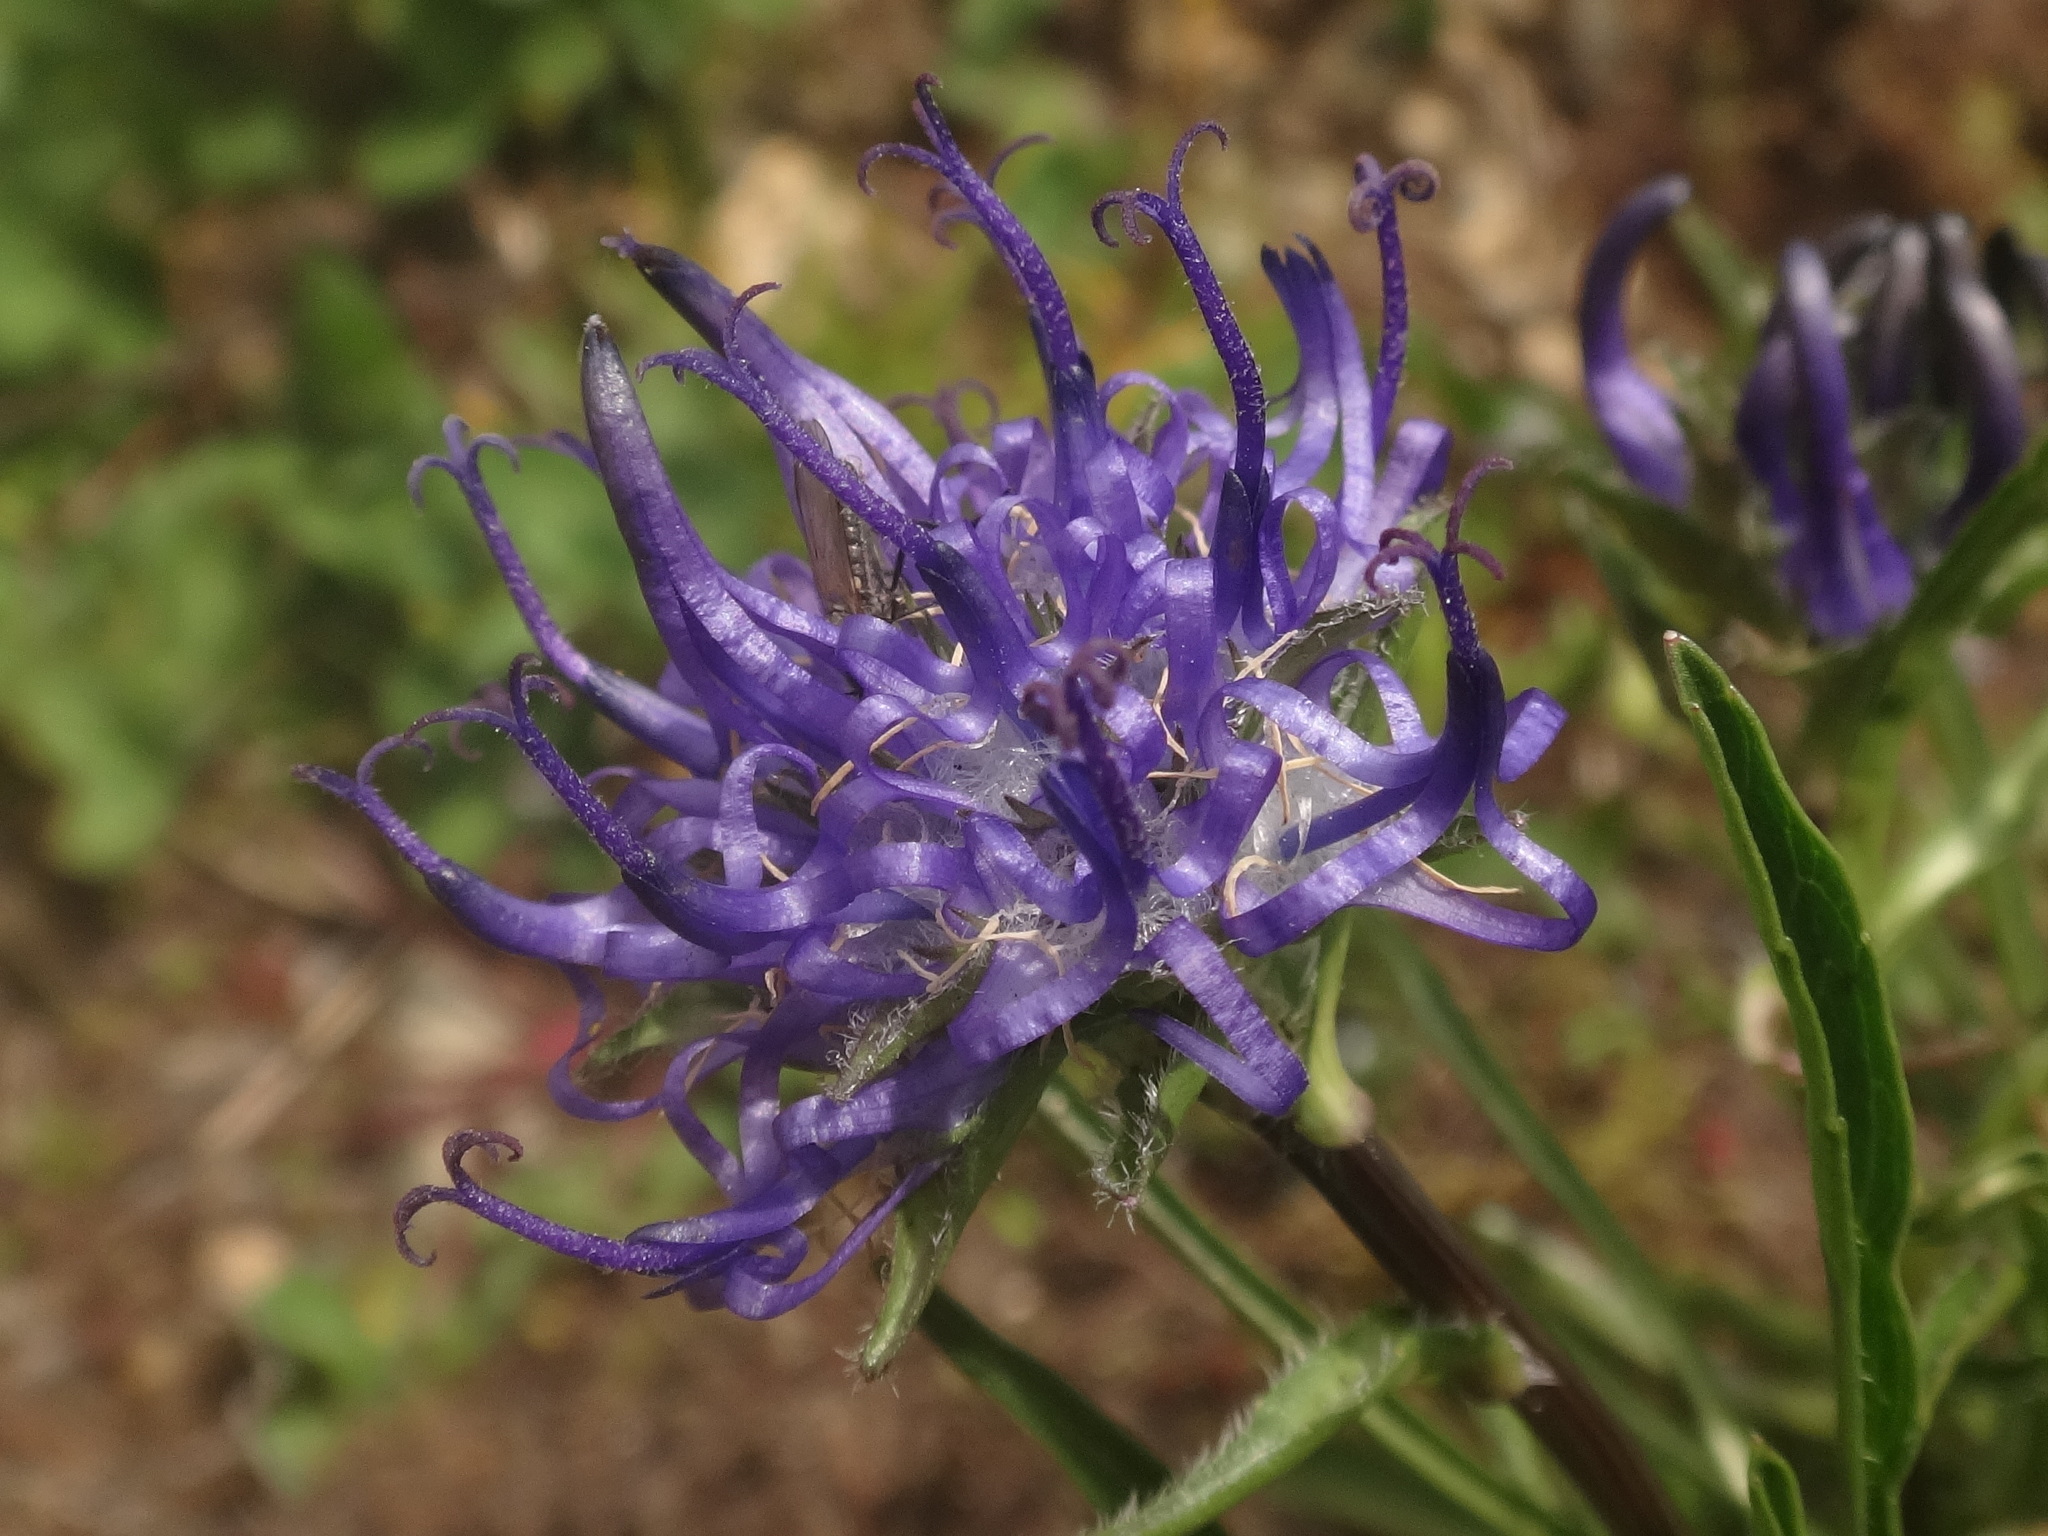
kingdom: Plantae
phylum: Tracheophyta
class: Magnoliopsida
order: Asterales
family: Campanulaceae
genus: Phyteuma
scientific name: Phyteuma confusum
